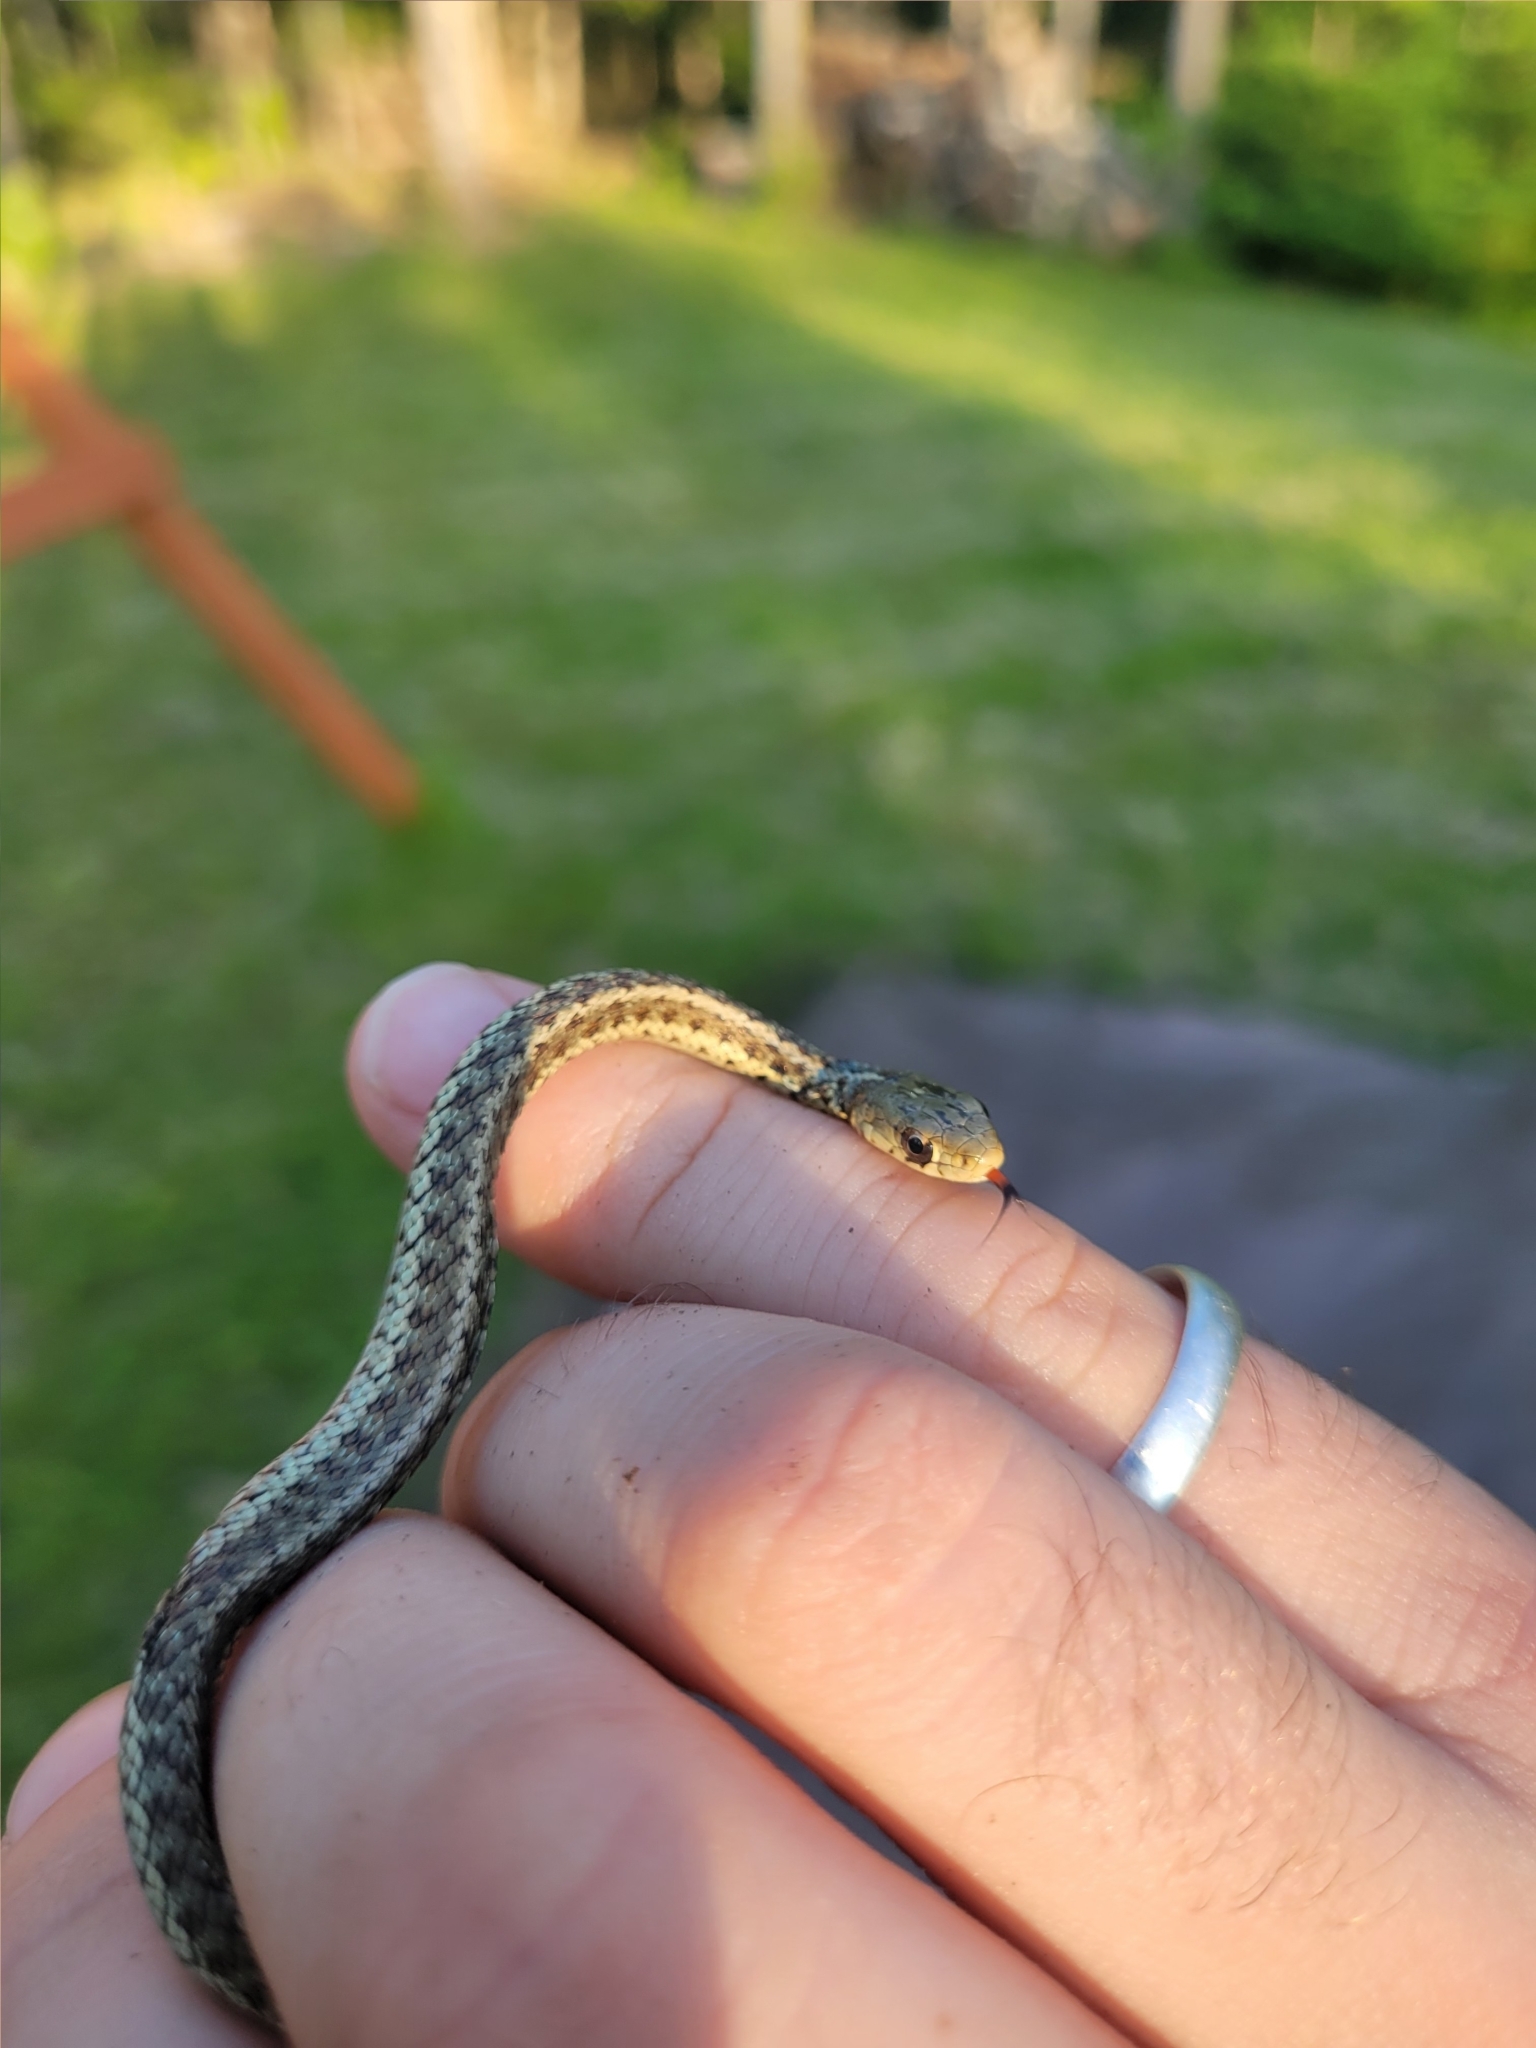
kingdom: Animalia
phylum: Chordata
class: Squamata
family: Colubridae
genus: Thamnophis
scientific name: Thamnophis sirtalis
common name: Common garter snake
